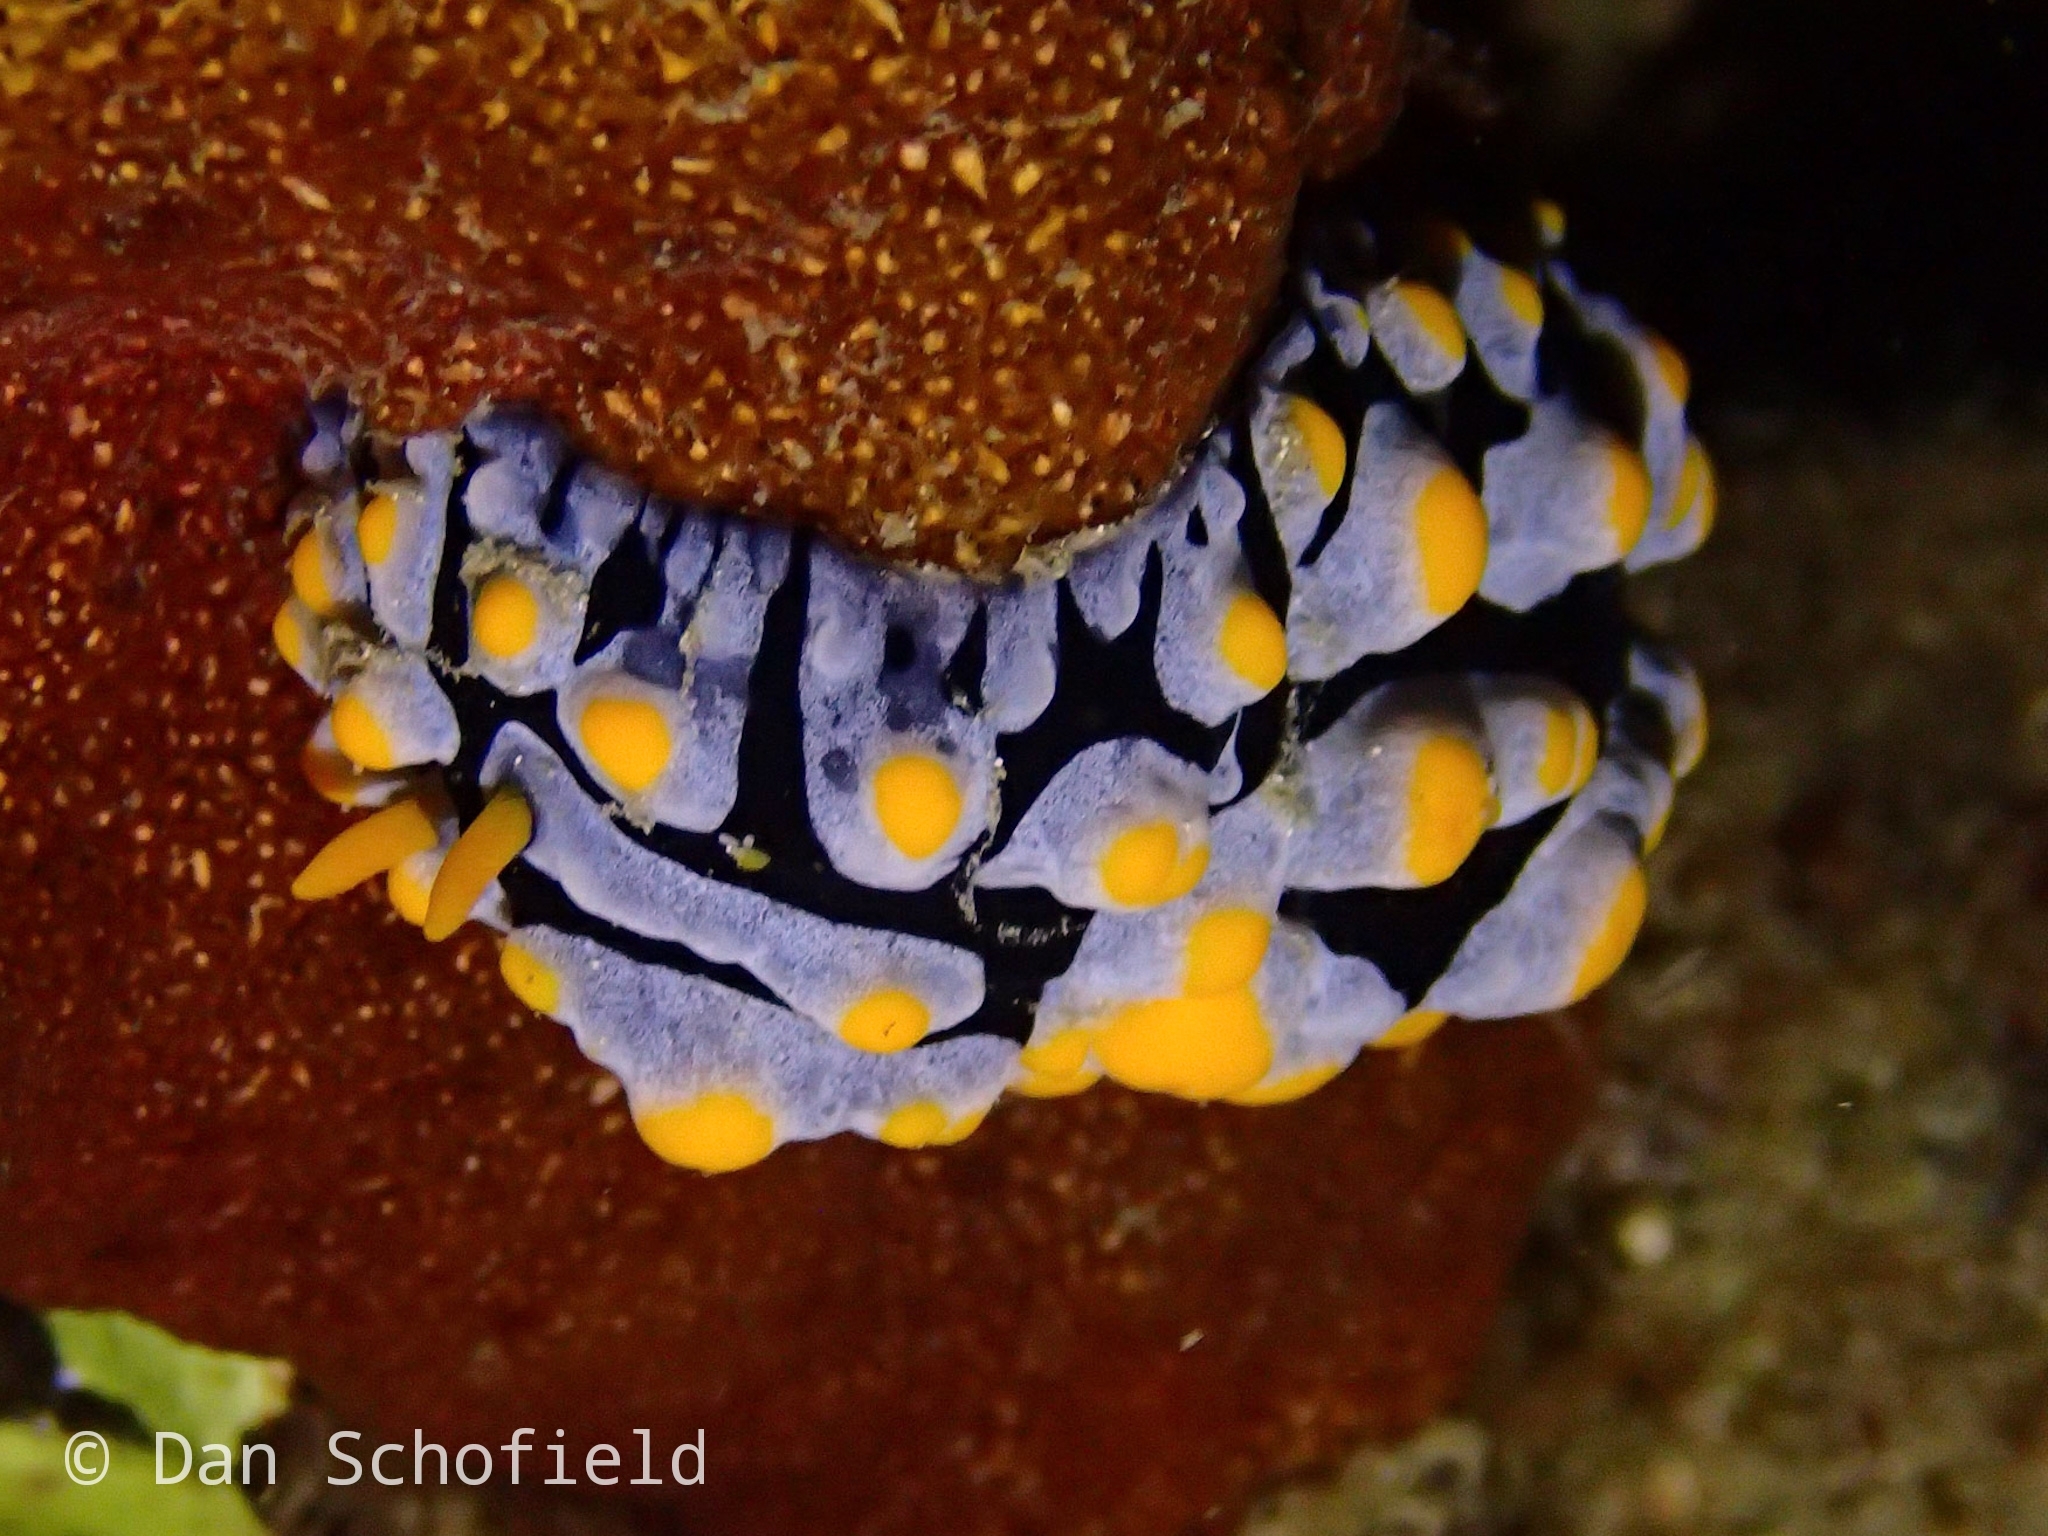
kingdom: Animalia
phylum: Mollusca
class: Gastropoda
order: Nudibranchia
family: Phyllidiidae
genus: Phyllidia
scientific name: Phyllidia varicosa
